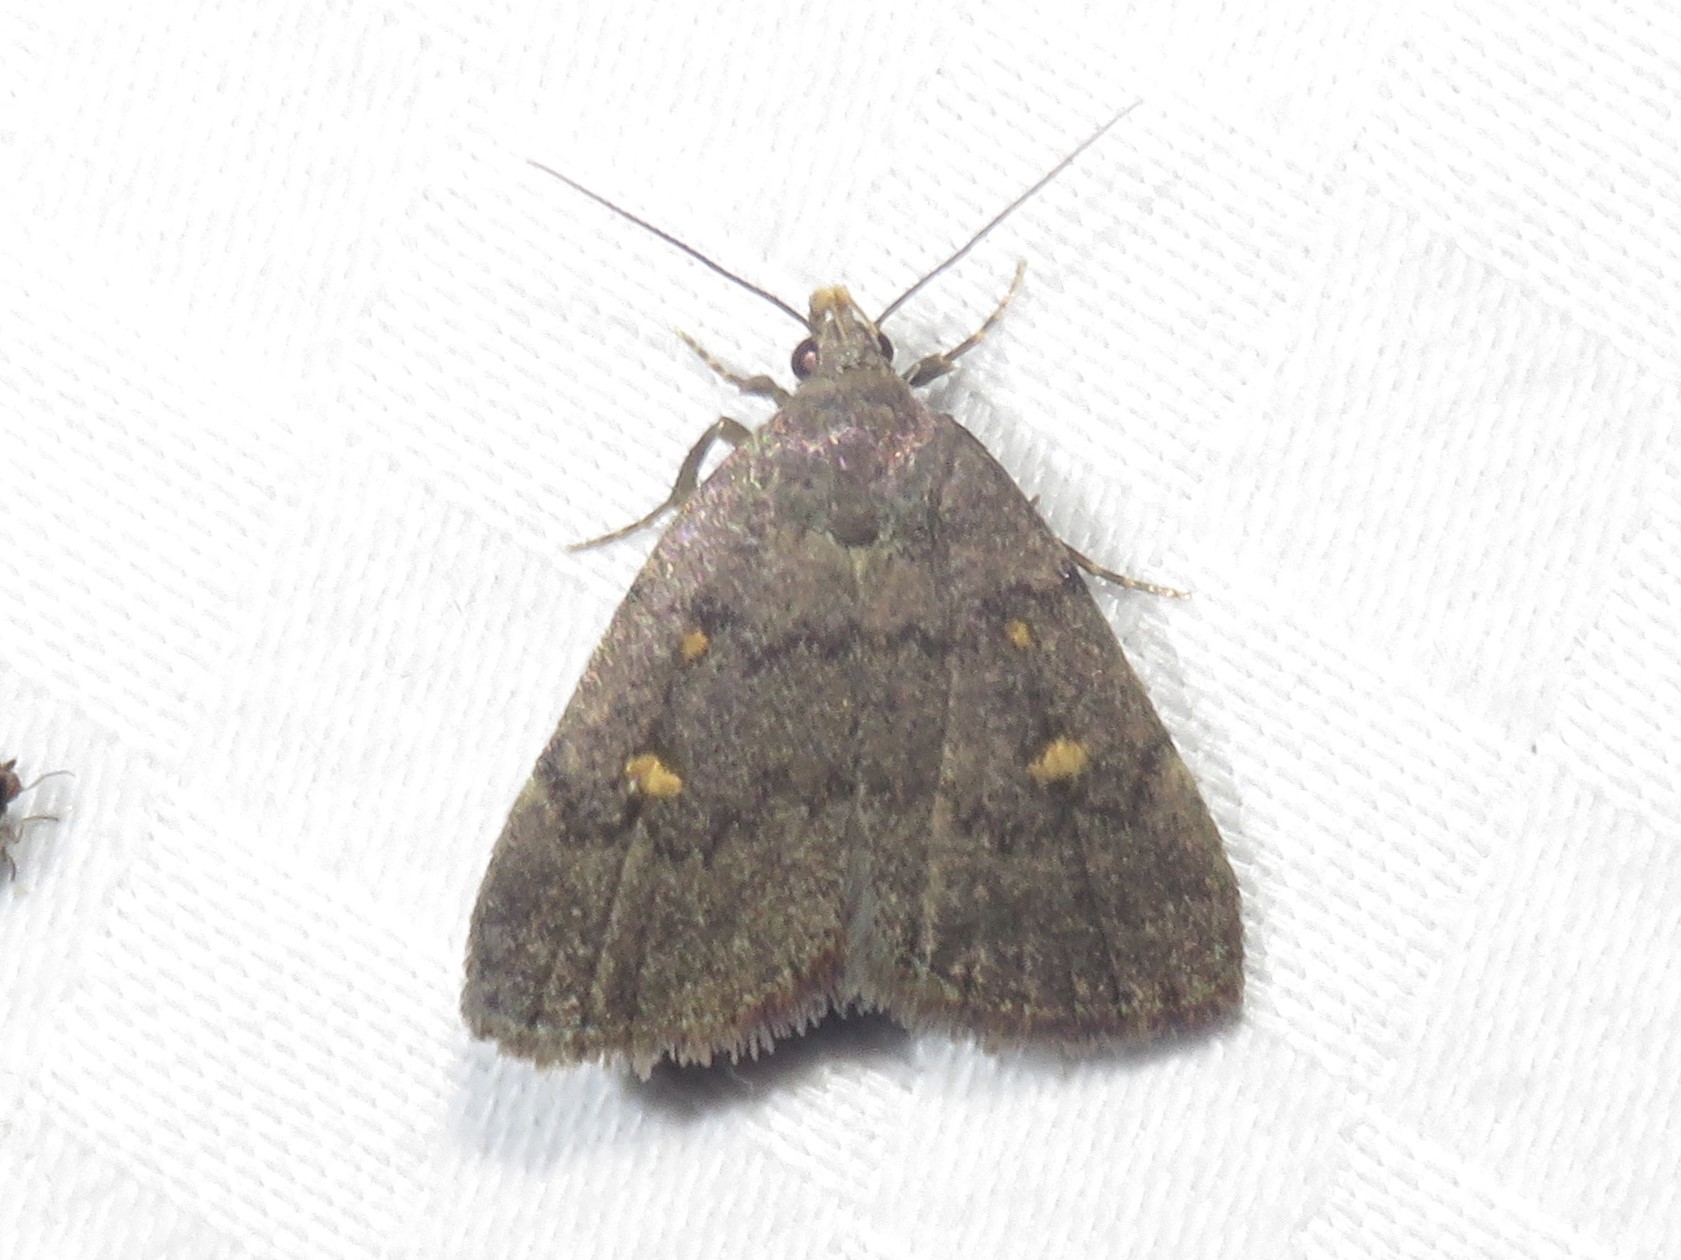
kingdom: Animalia
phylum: Arthropoda
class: Insecta
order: Lepidoptera
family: Erebidae
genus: Idia
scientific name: Idia diminuendis
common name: Orange-spotted idia moth
